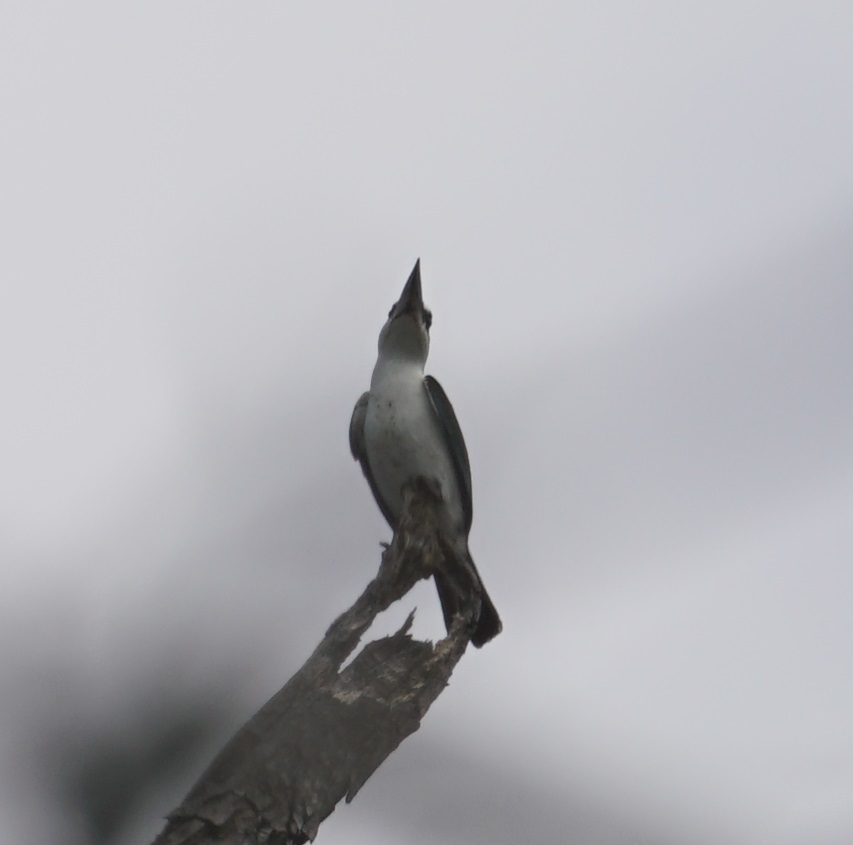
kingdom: Animalia
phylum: Chordata
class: Aves
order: Coraciiformes
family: Alcedinidae
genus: Todiramphus
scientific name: Todiramphus sordidus
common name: Torresian kingfisher
